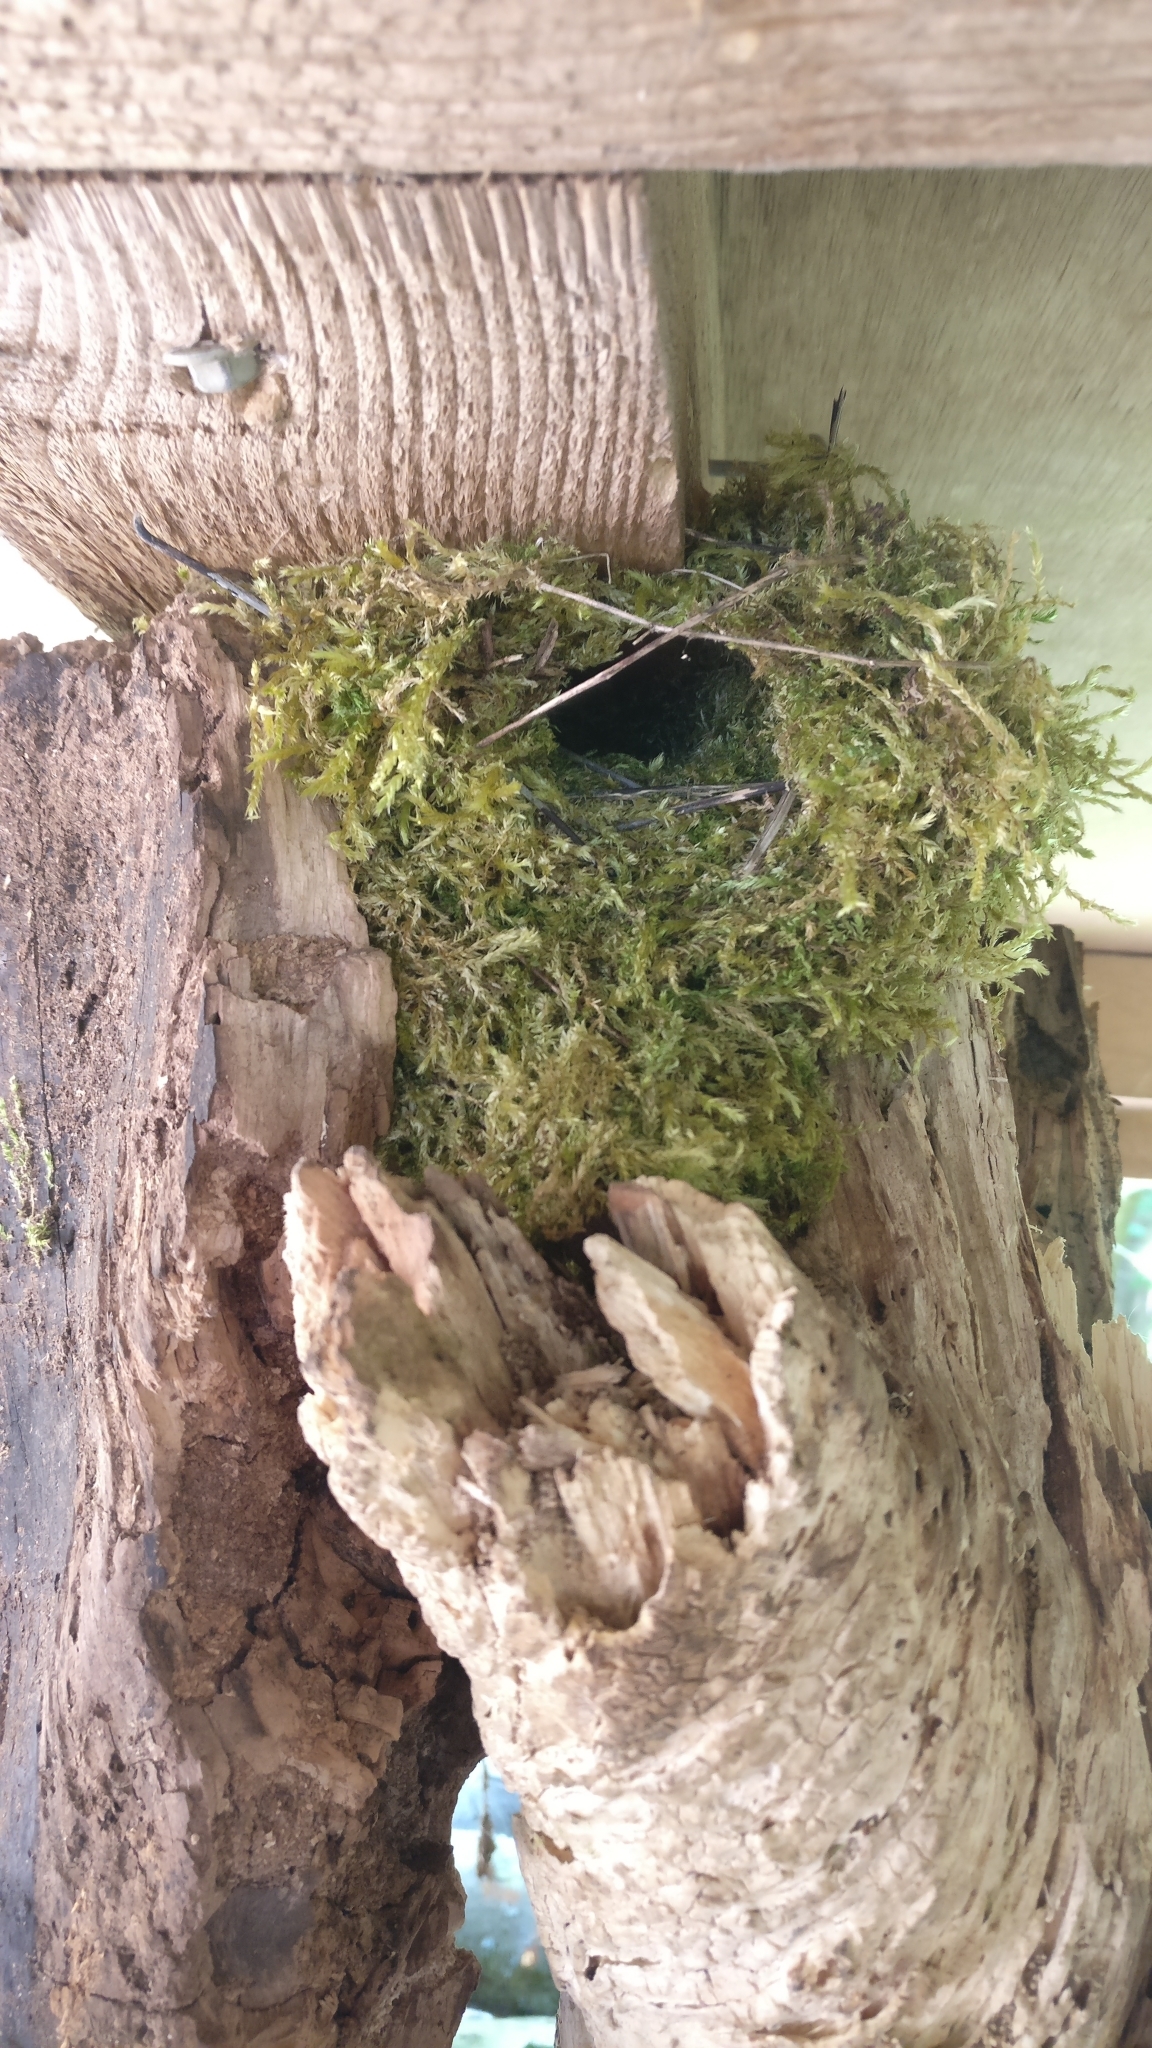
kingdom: Animalia
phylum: Chordata
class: Aves
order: Passeriformes
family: Troglodytidae
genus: Troglodytes
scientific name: Troglodytes troglodytes
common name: Eurasian wren
